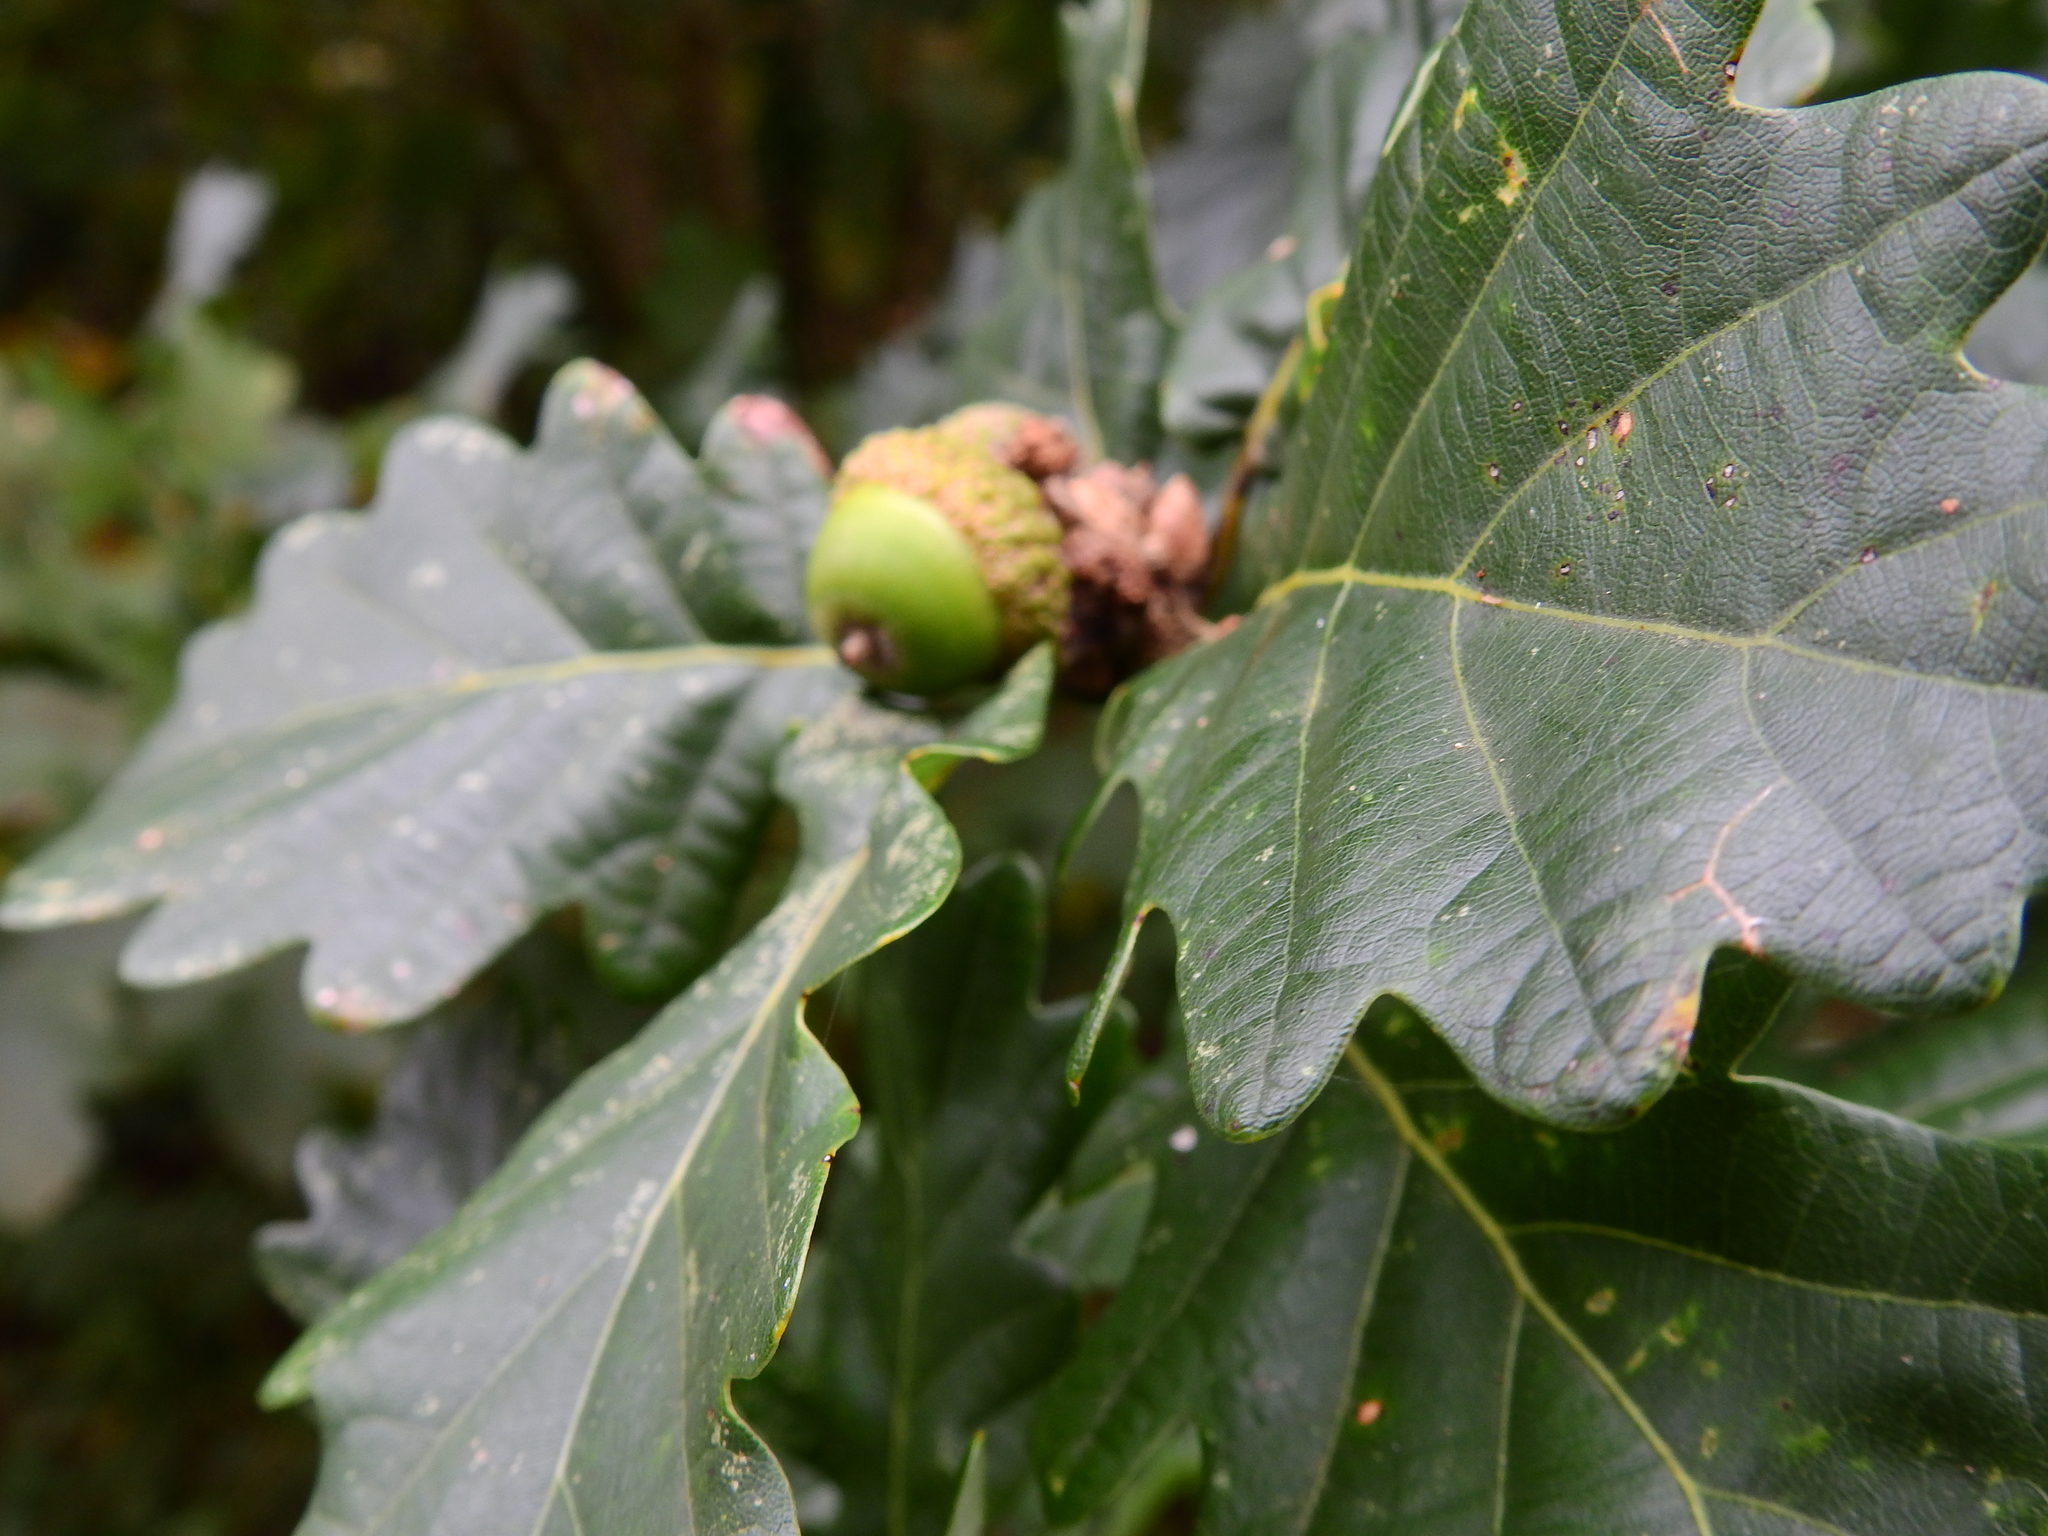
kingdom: Plantae
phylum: Tracheophyta
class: Magnoliopsida
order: Fagales
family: Fagaceae
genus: Quercus
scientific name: Quercus petraea
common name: Sessile oak
